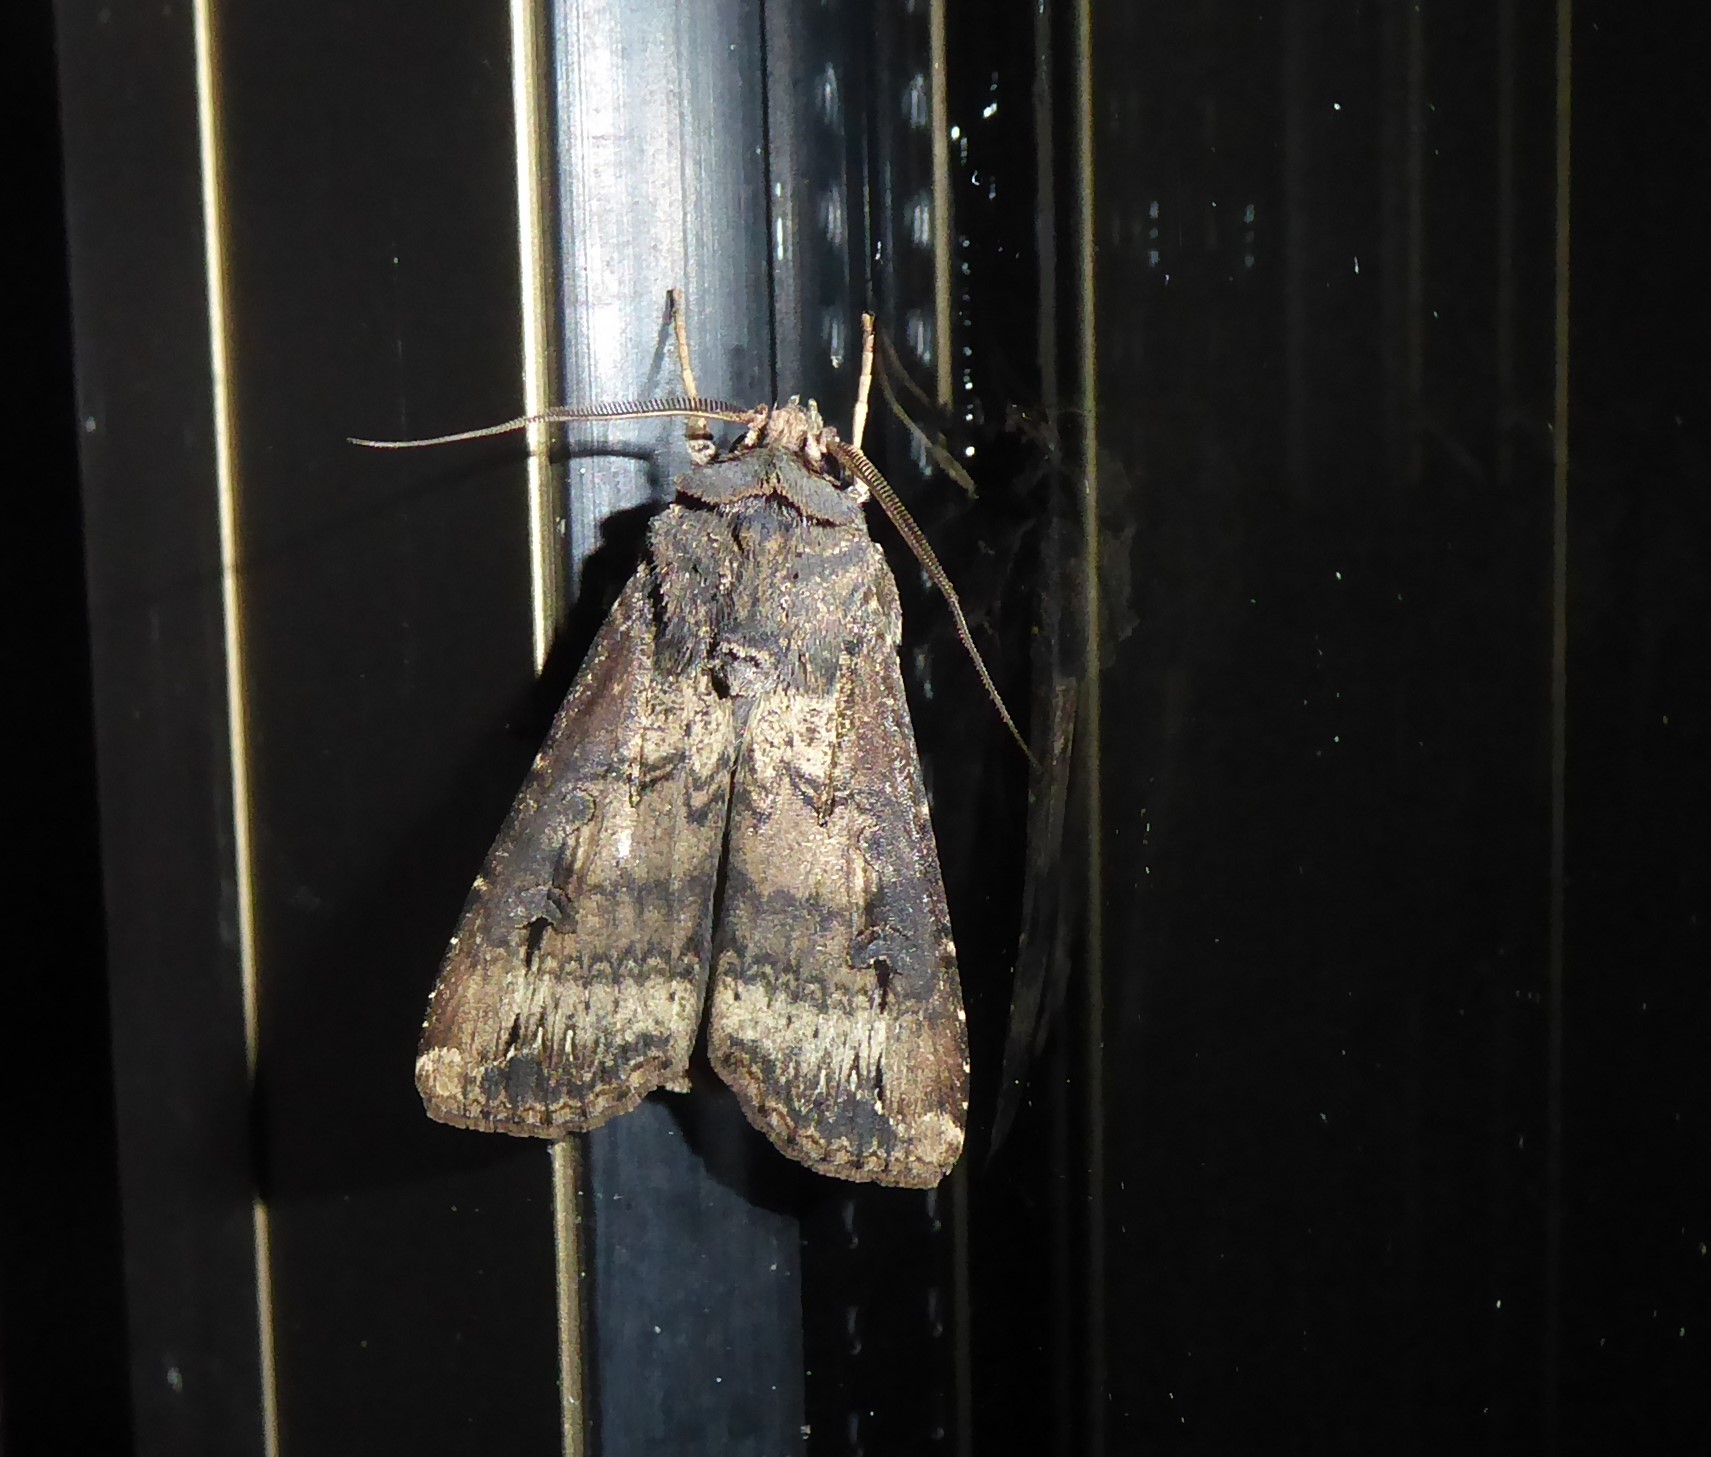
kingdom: Animalia
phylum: Arthropoda
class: Insecta
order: Lepidoptera
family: Noctuidae
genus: Agrotis
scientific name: Agrotis ipsilon
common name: Dark sword-grass
